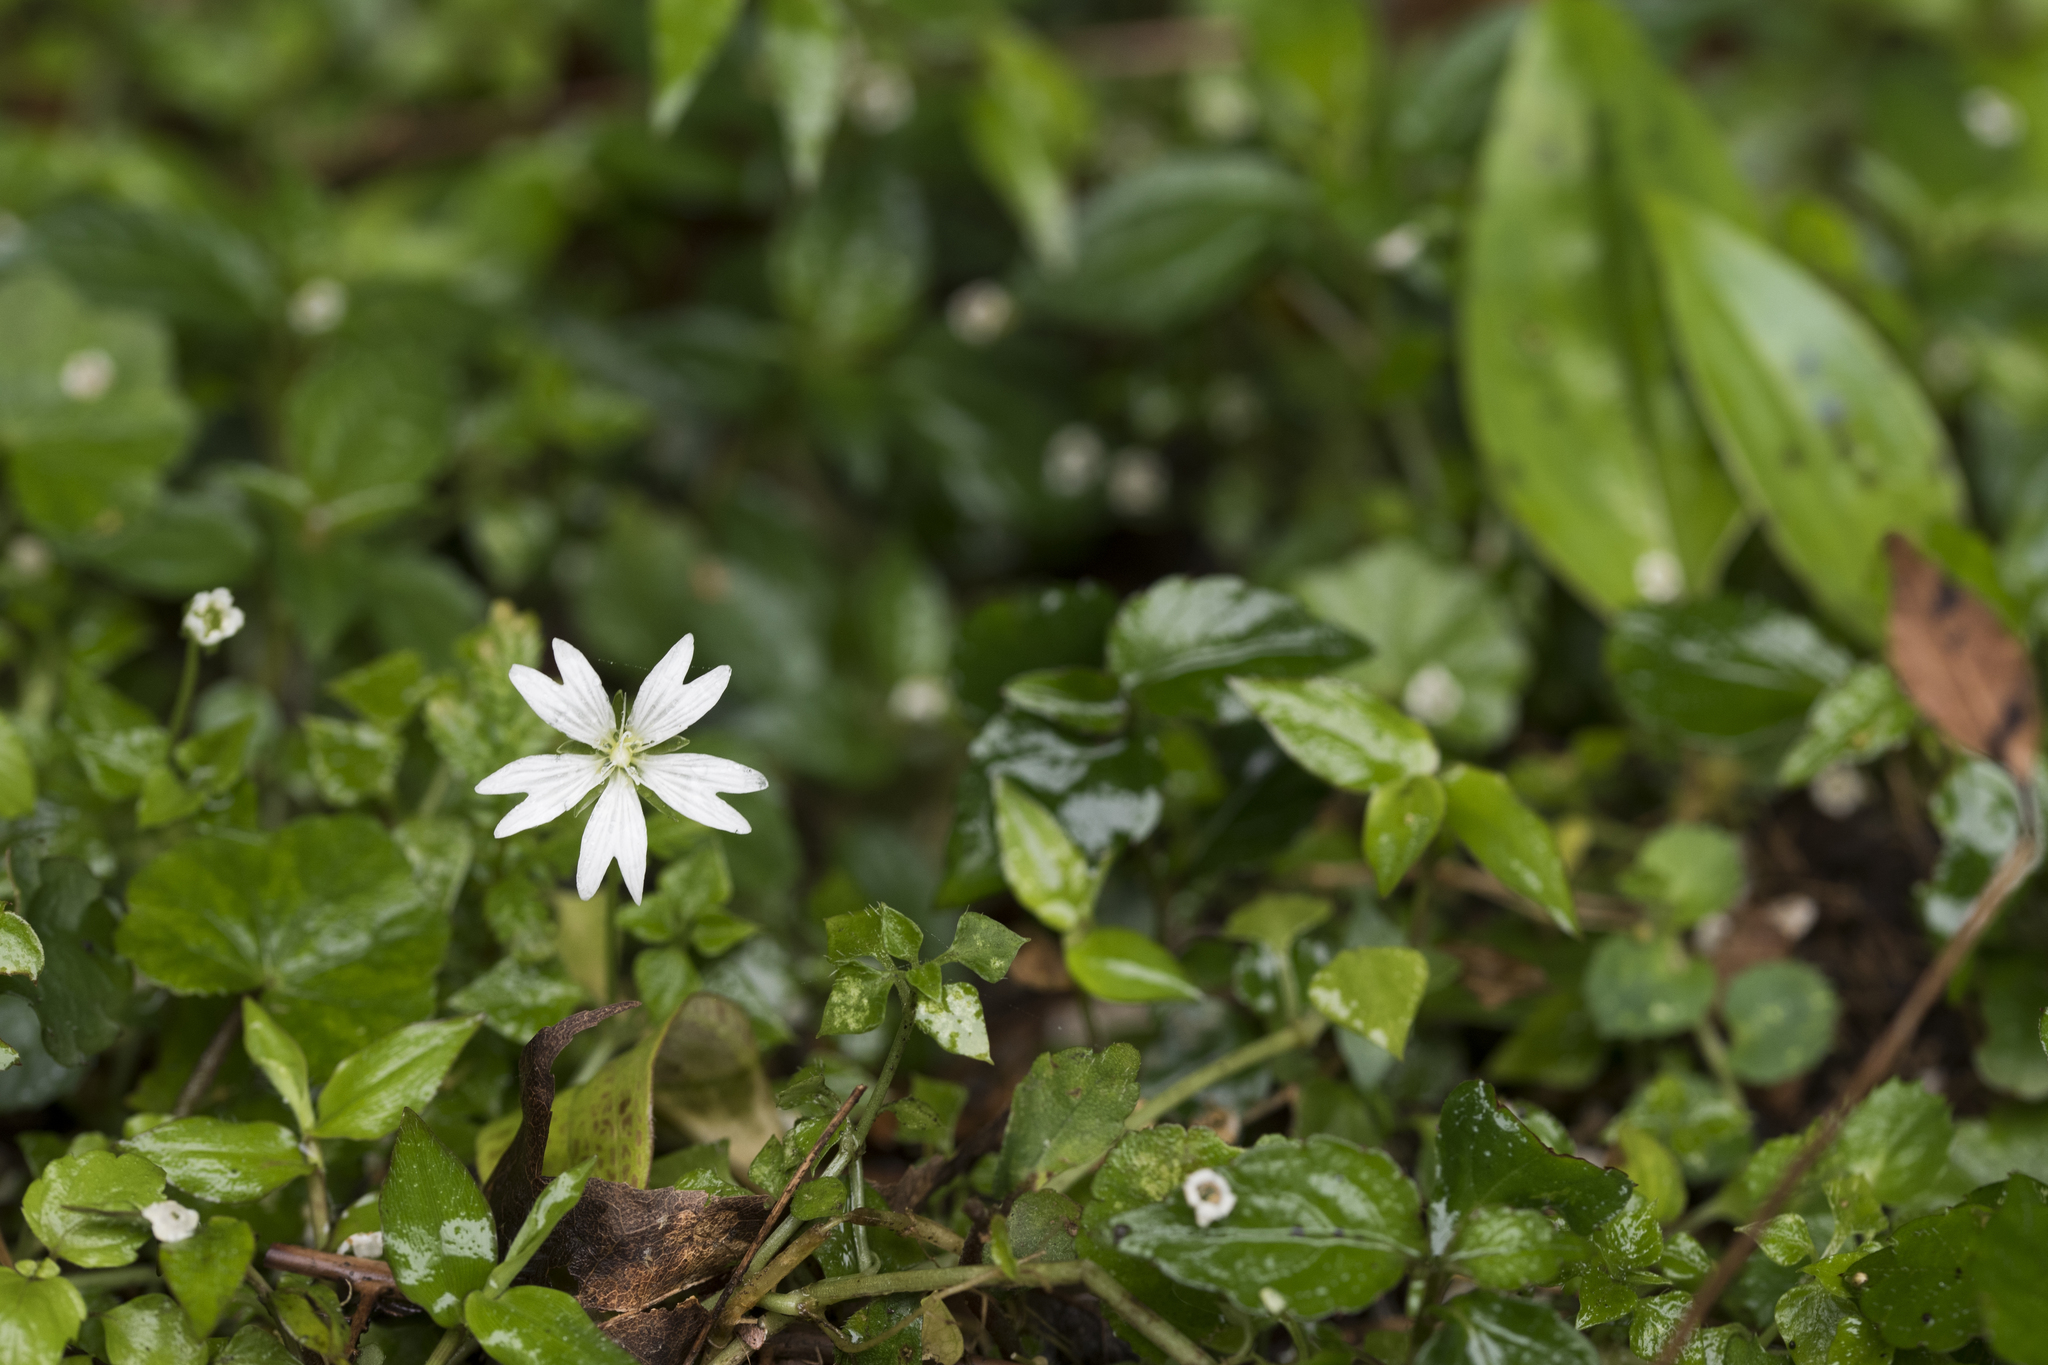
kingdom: Plantae
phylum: Tracheophyta
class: Magnoliopsida
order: Caryophyllales
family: Caryophyllaceae
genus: Nubelaria
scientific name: Nubelaria arisanensis
